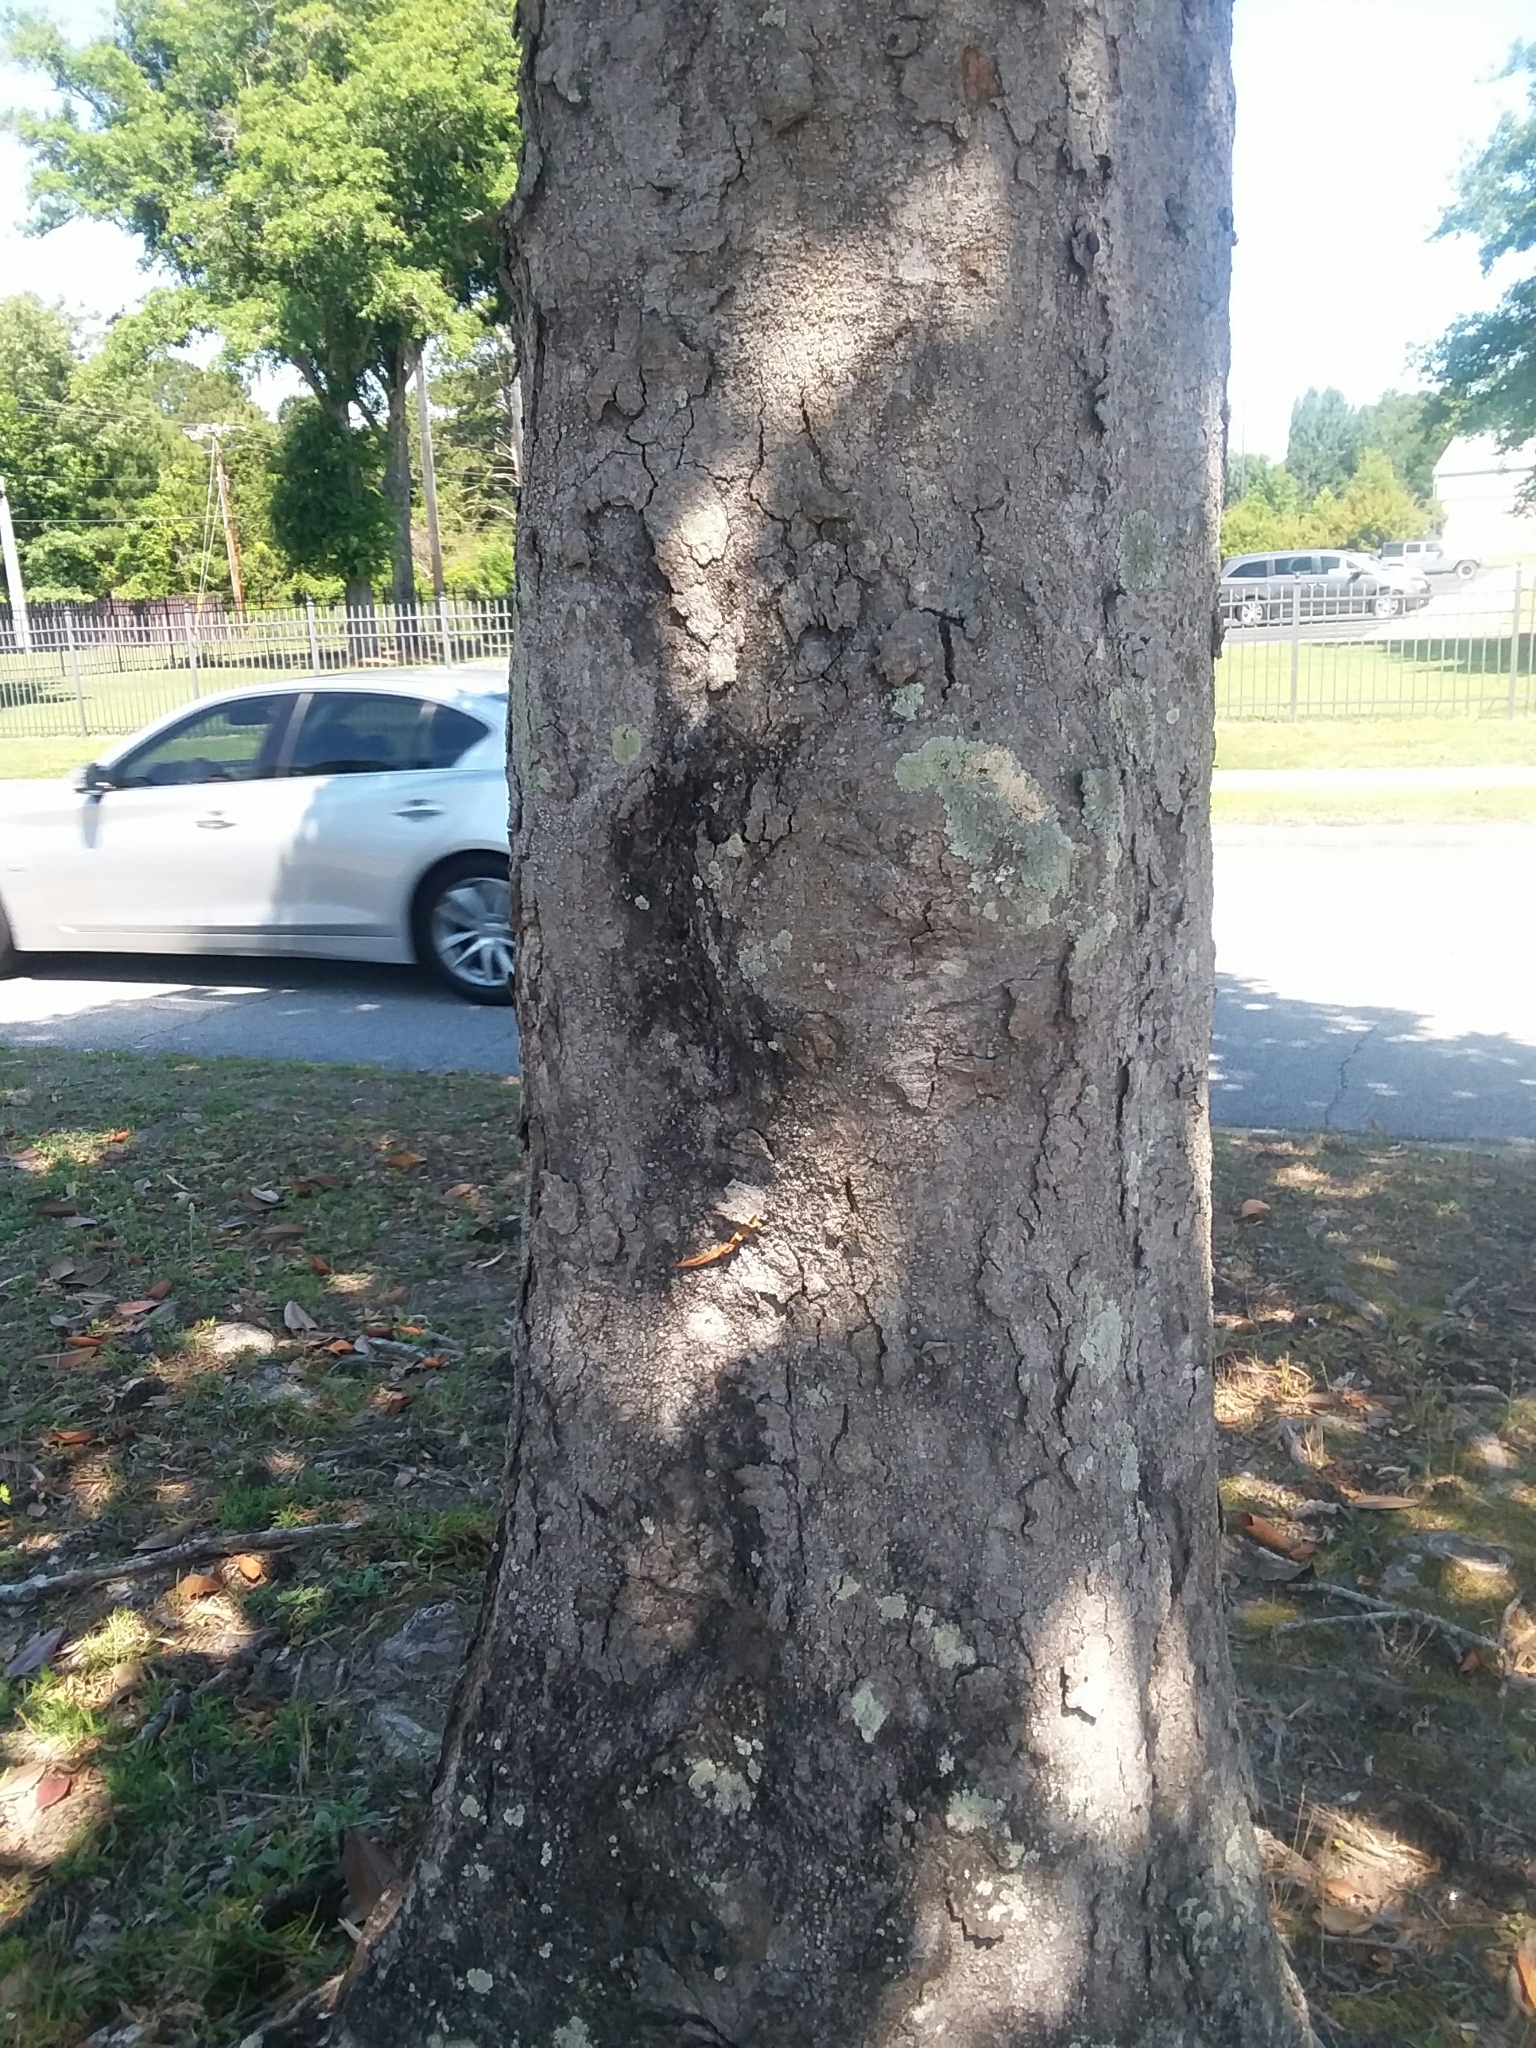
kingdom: Plantae
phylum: Tracheophyta
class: Magnoliopsida
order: Magnoliales
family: Magnoliaceae
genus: Magnolia
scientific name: Magnolia grandiflora
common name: Southern magnolia
